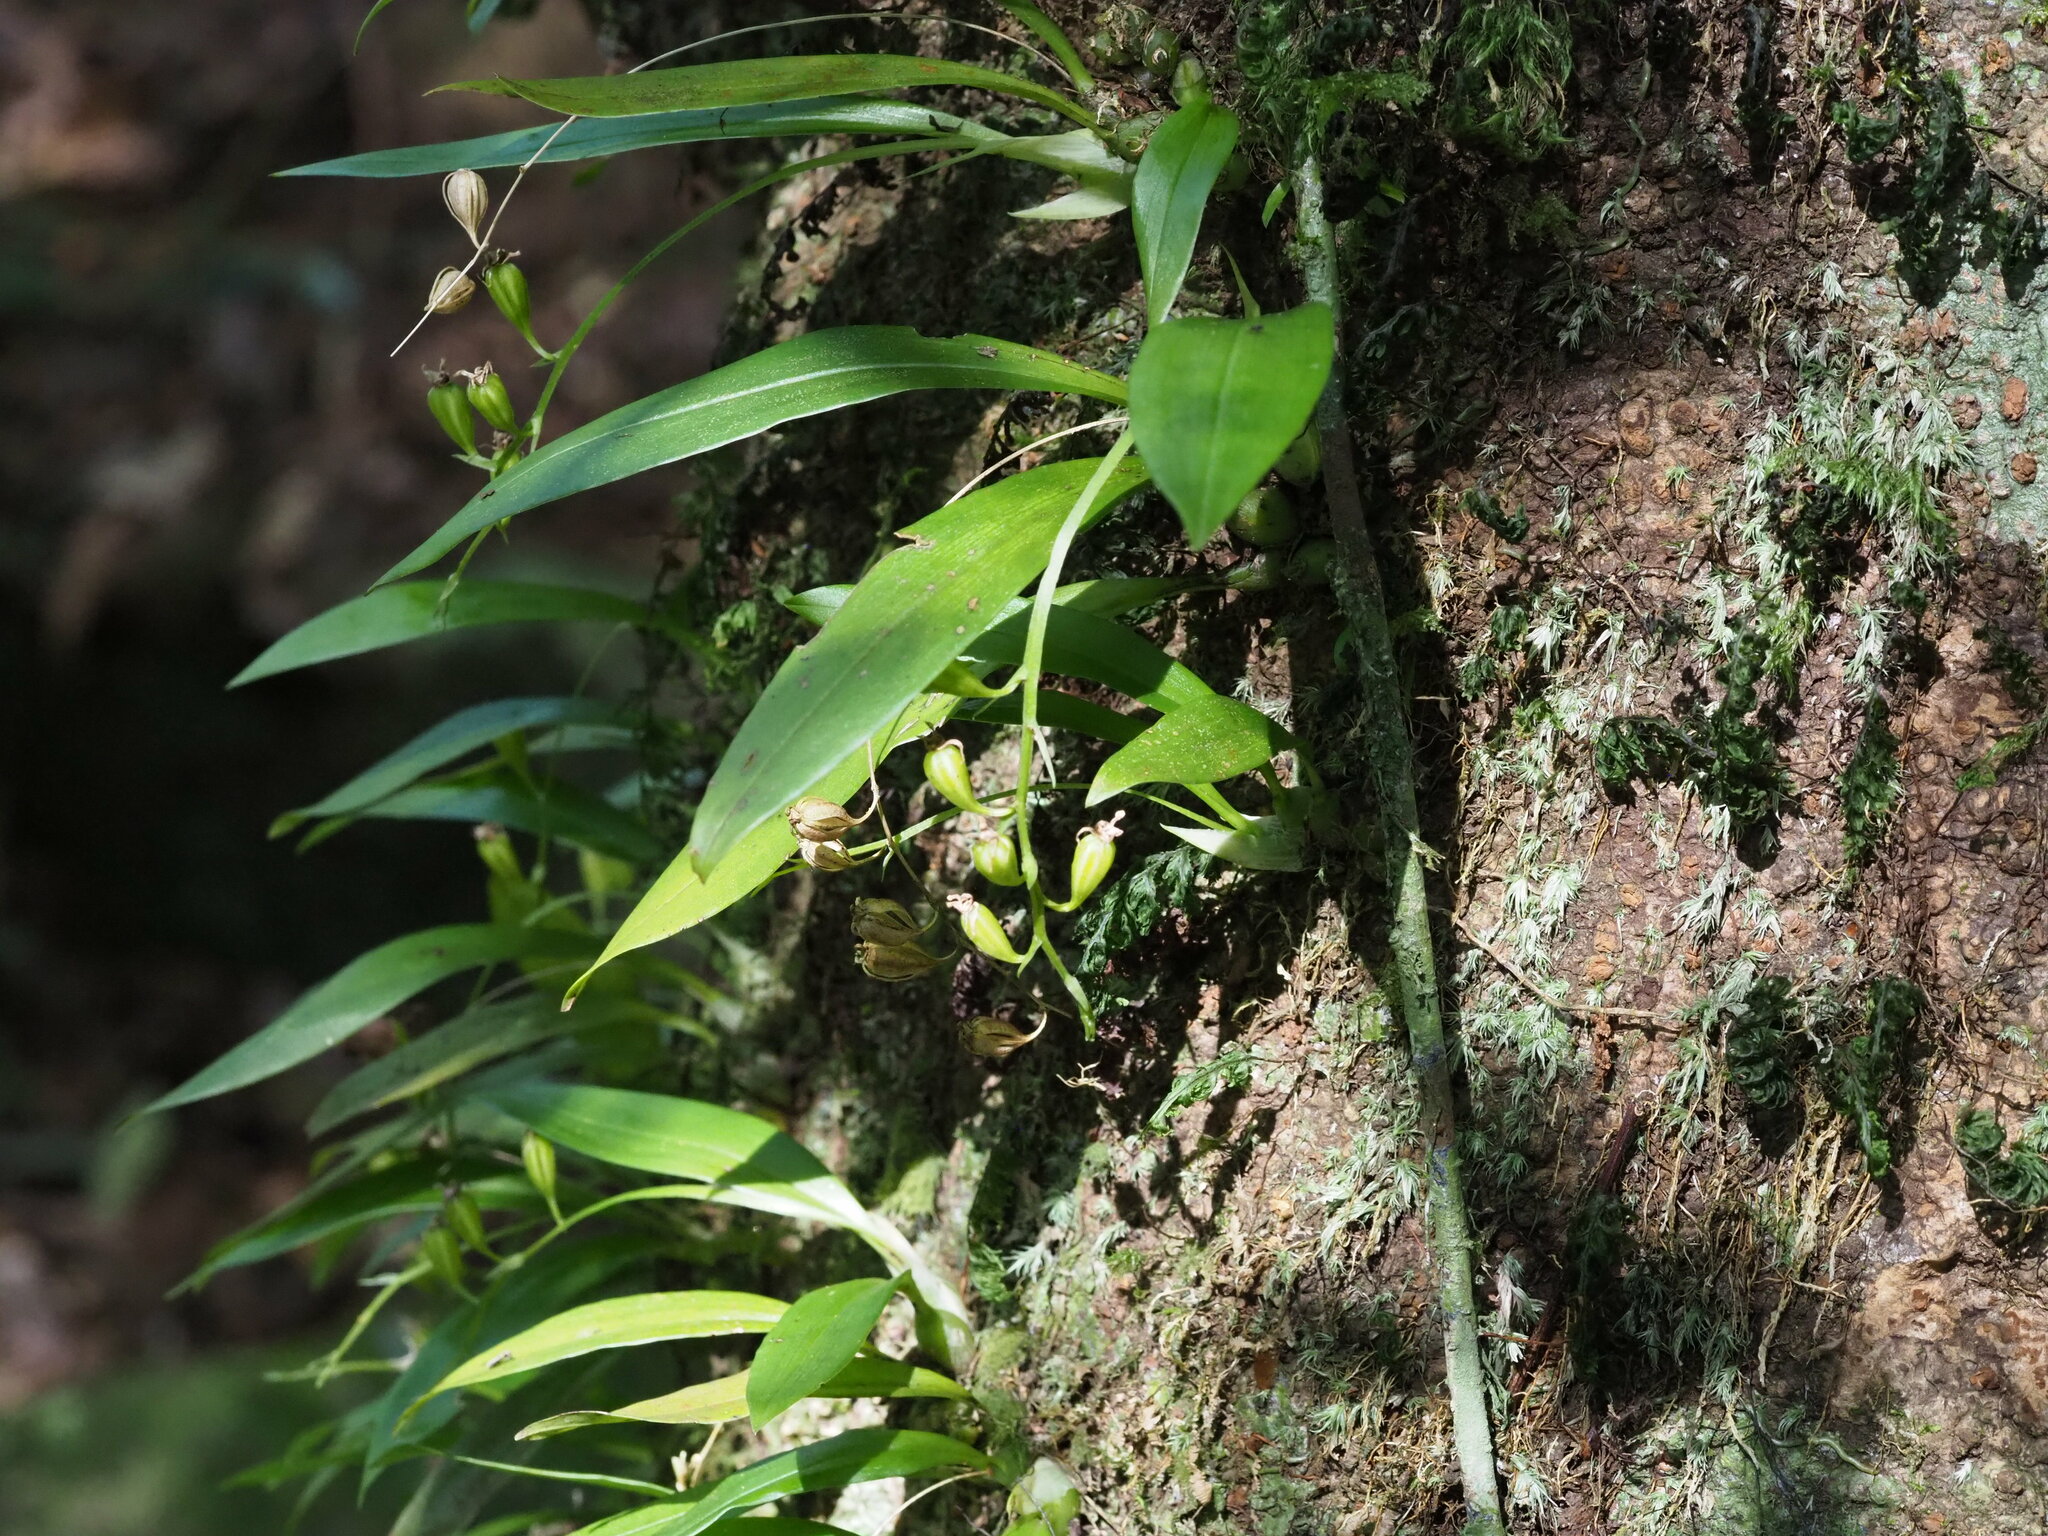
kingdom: Plantae
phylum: Tracheophyta
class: Liliopsida
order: Asparagales
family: Orchidaceae
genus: Liparis
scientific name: Liparis bootanensis
